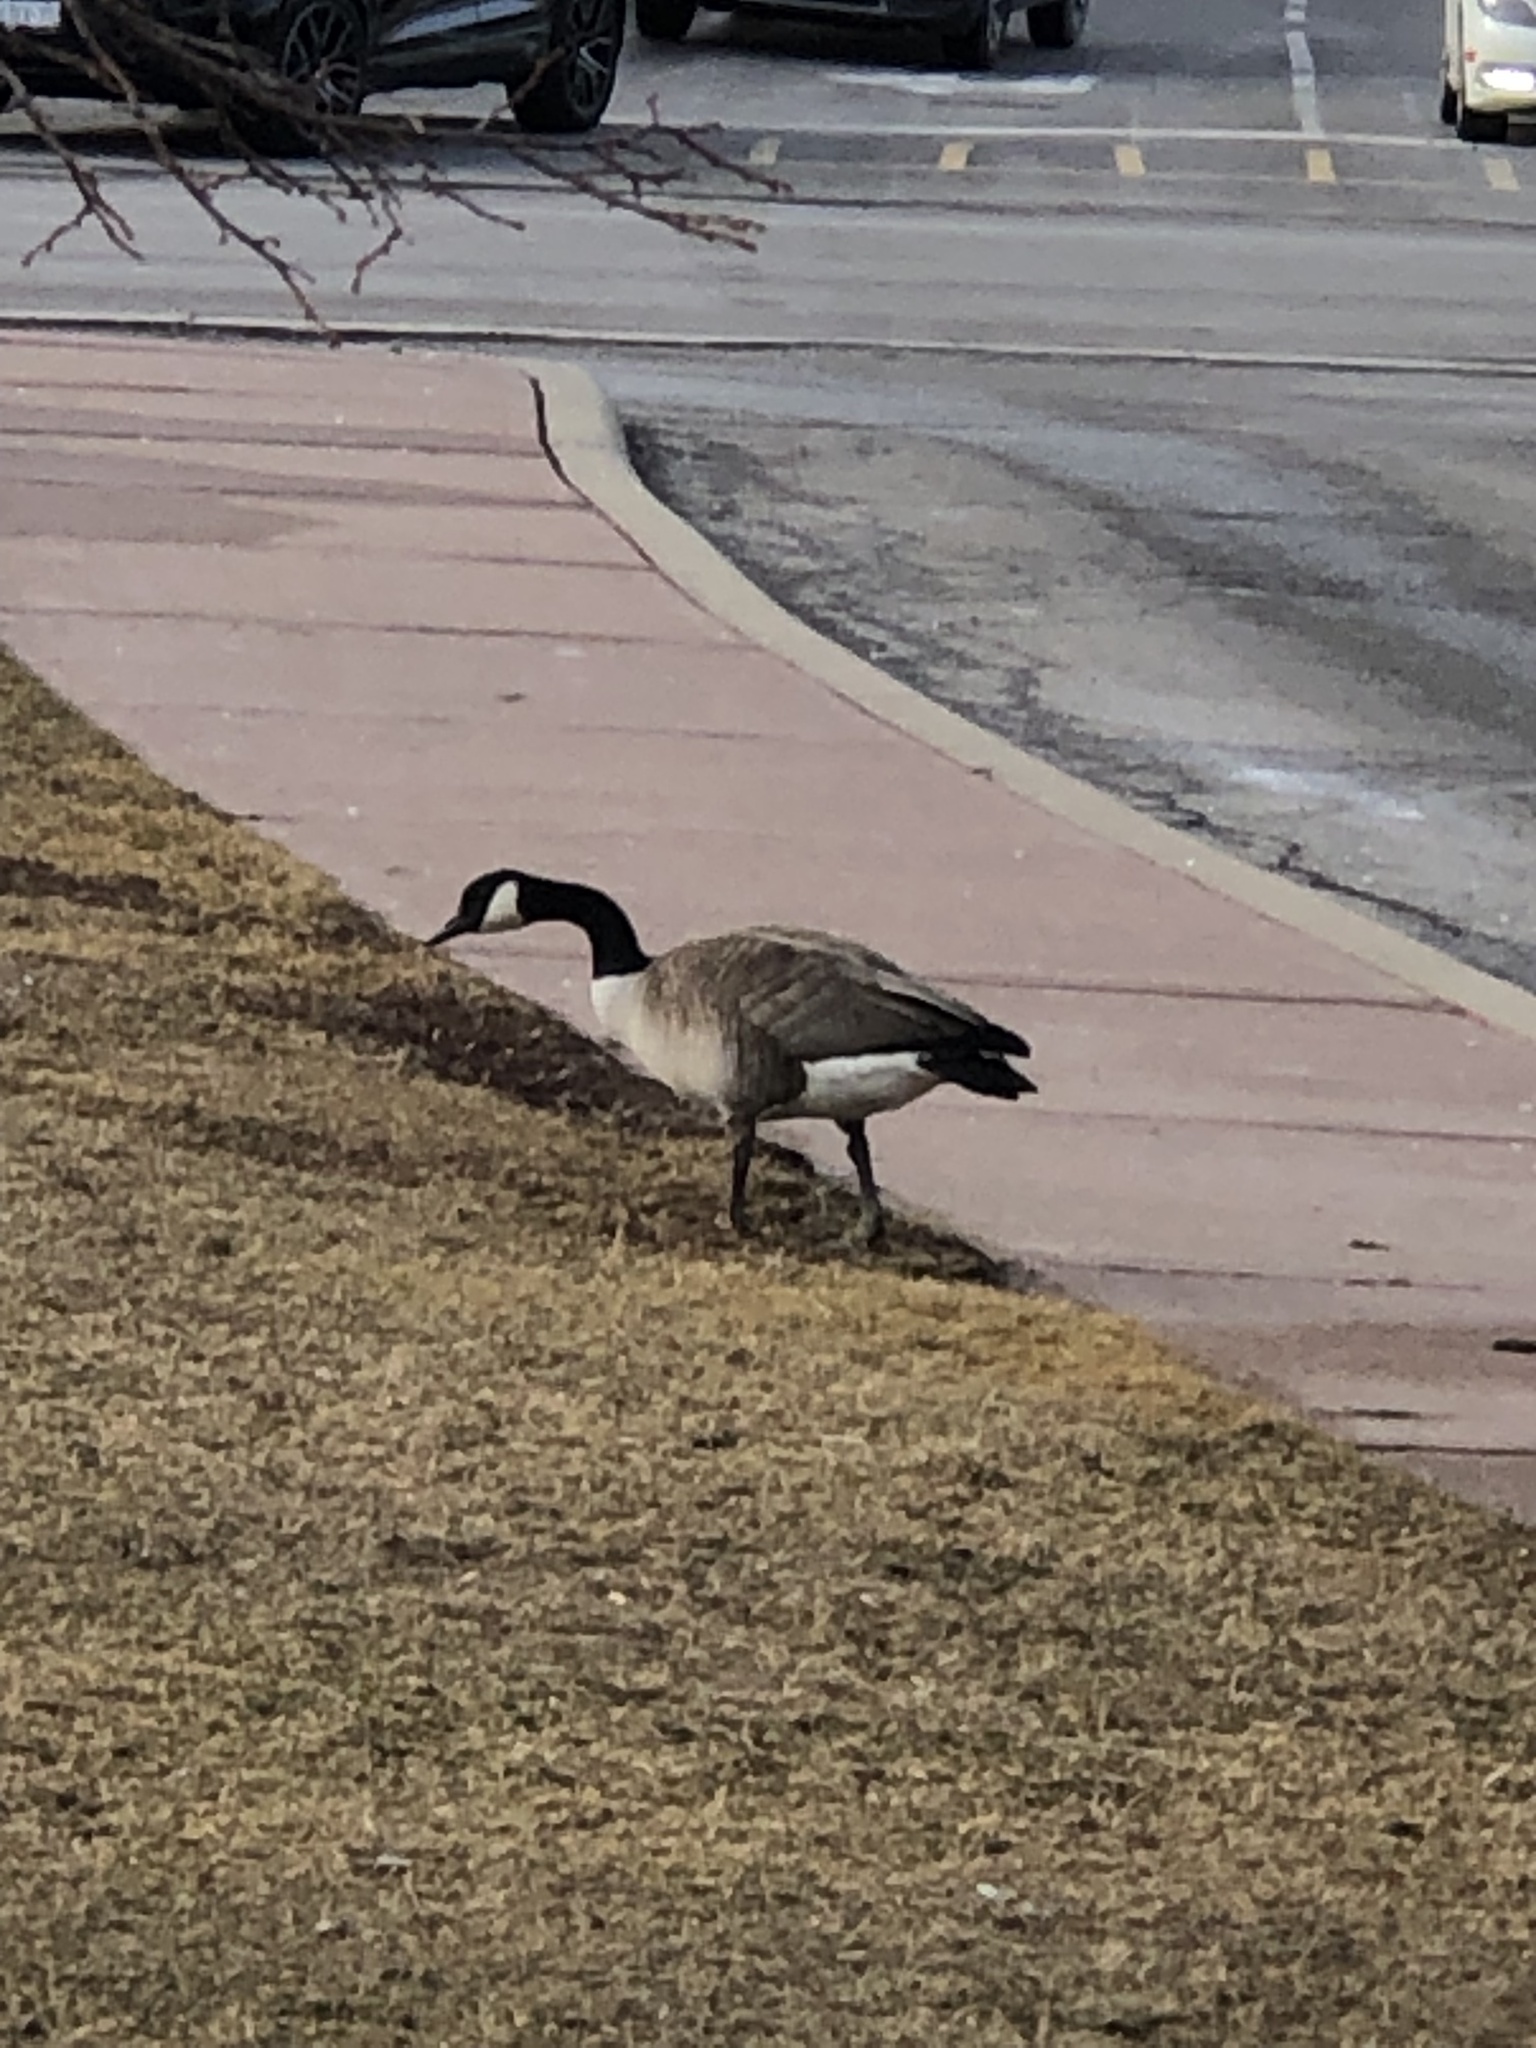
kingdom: Animalia
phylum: Chordata
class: Aves
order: Anseriformes
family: Anatidae
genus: Branta
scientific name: Branta canadensis
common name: Canada goose
